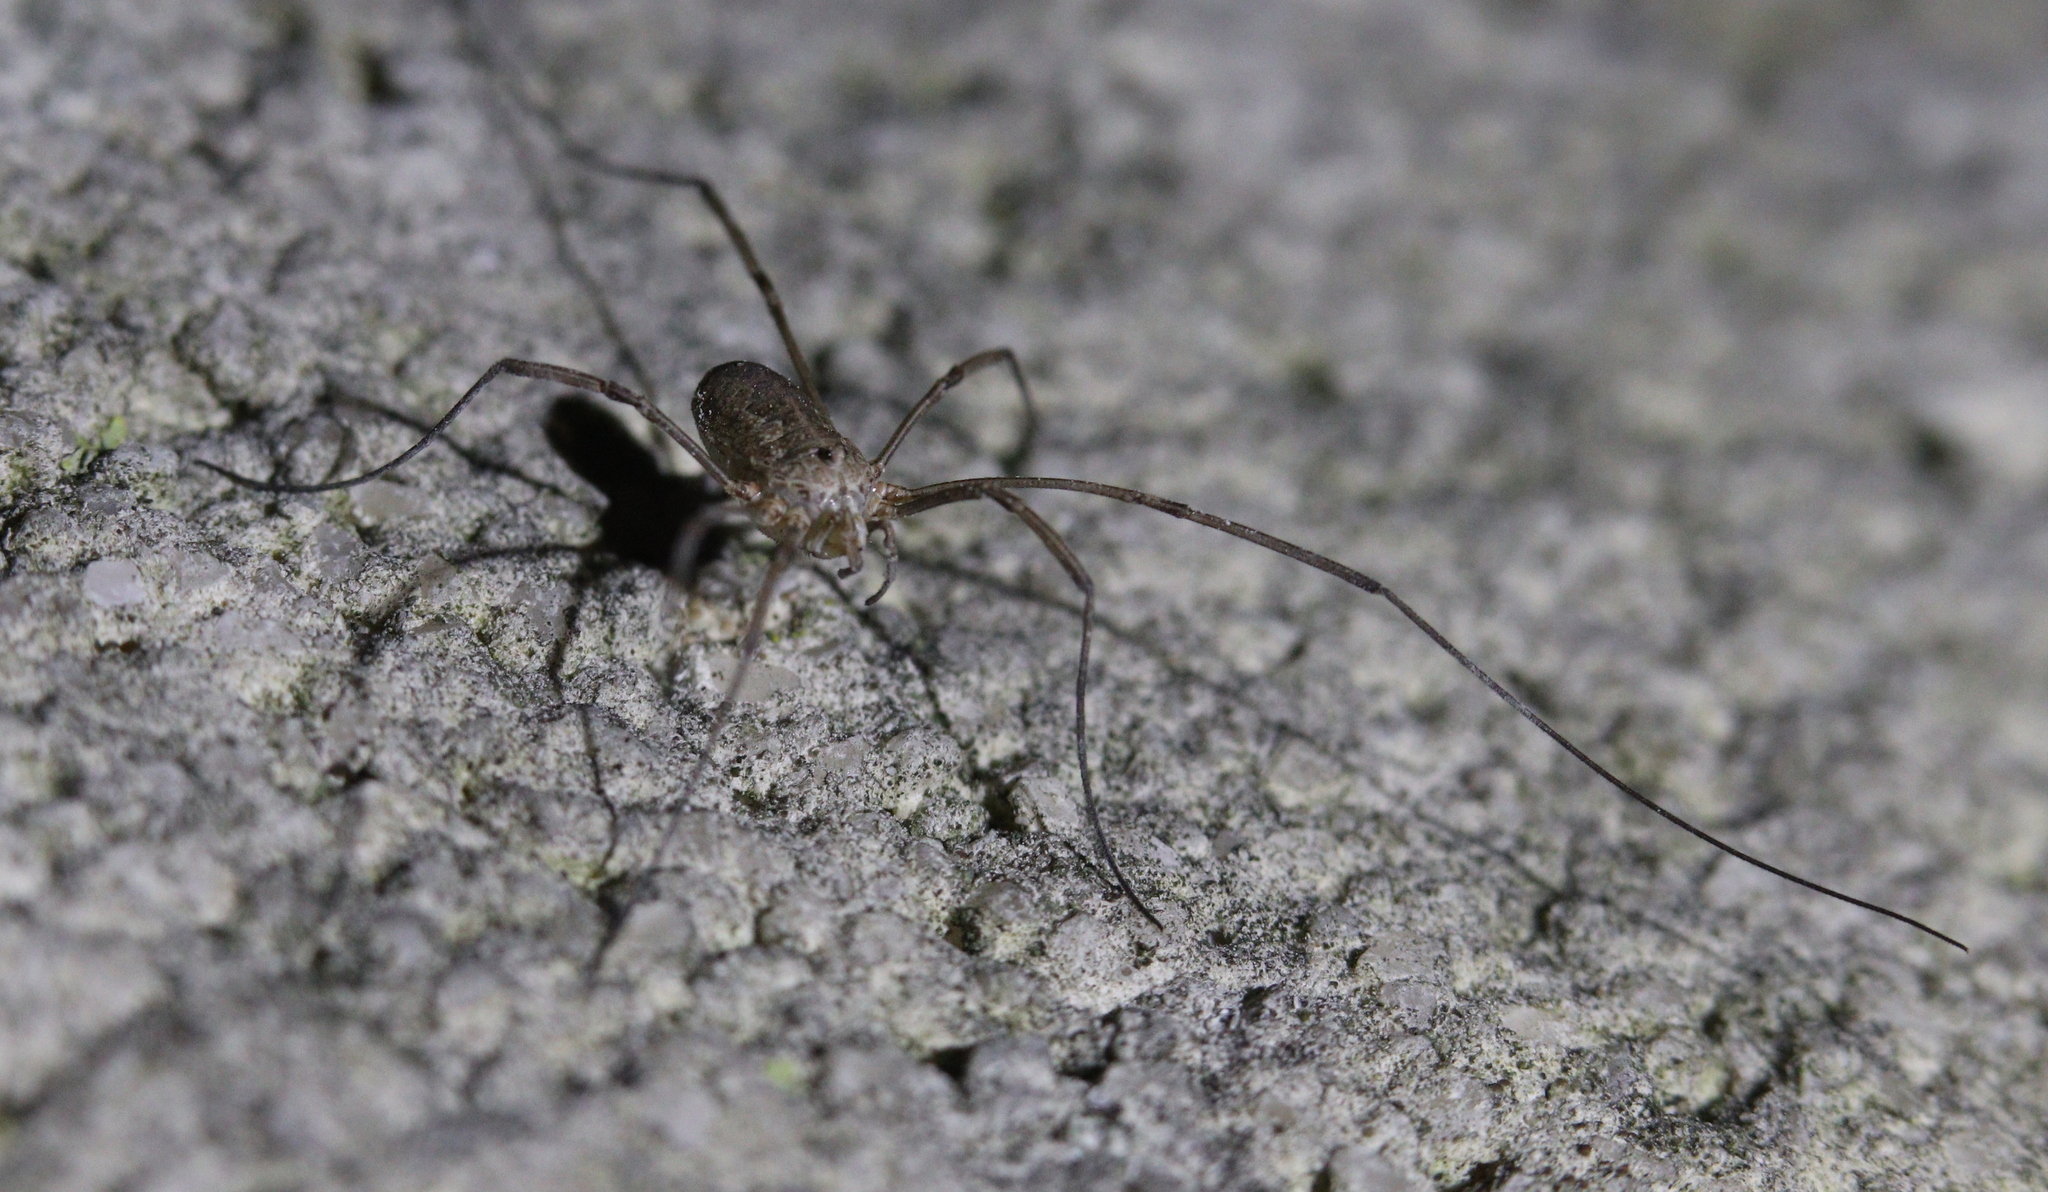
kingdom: Animalia
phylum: Arthropoda
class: Arachnida
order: Opiliones
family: Phalangiidae
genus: Phalangium
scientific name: Phalangium opilio
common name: Daddy longleg
